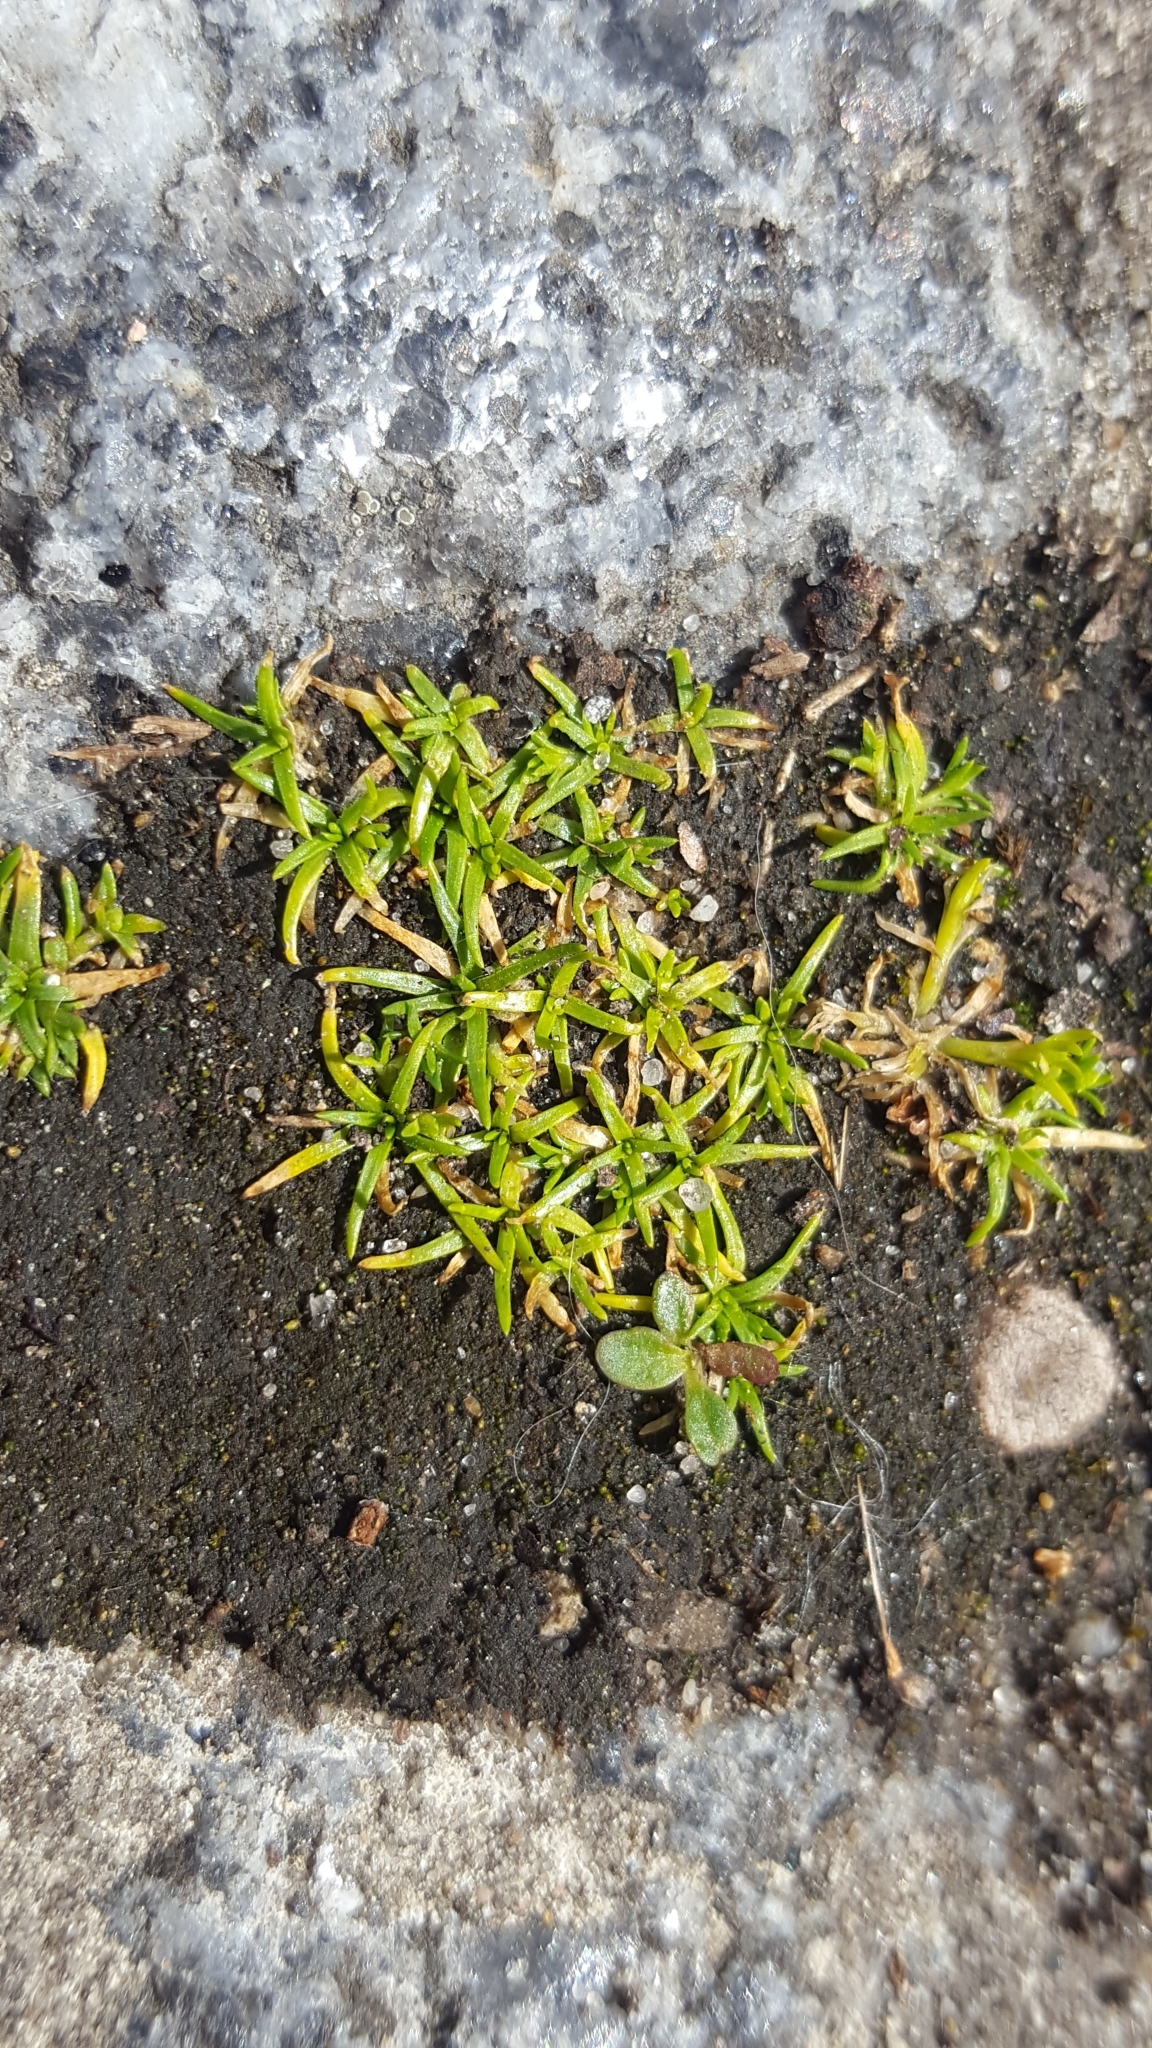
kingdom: Plantae
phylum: Tracheophyta
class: Magnoliopsida
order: Caryophyllales
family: Caryophyllaceae
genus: Sagina
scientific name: Sagina procumbens
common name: Procumbent pearlwort
